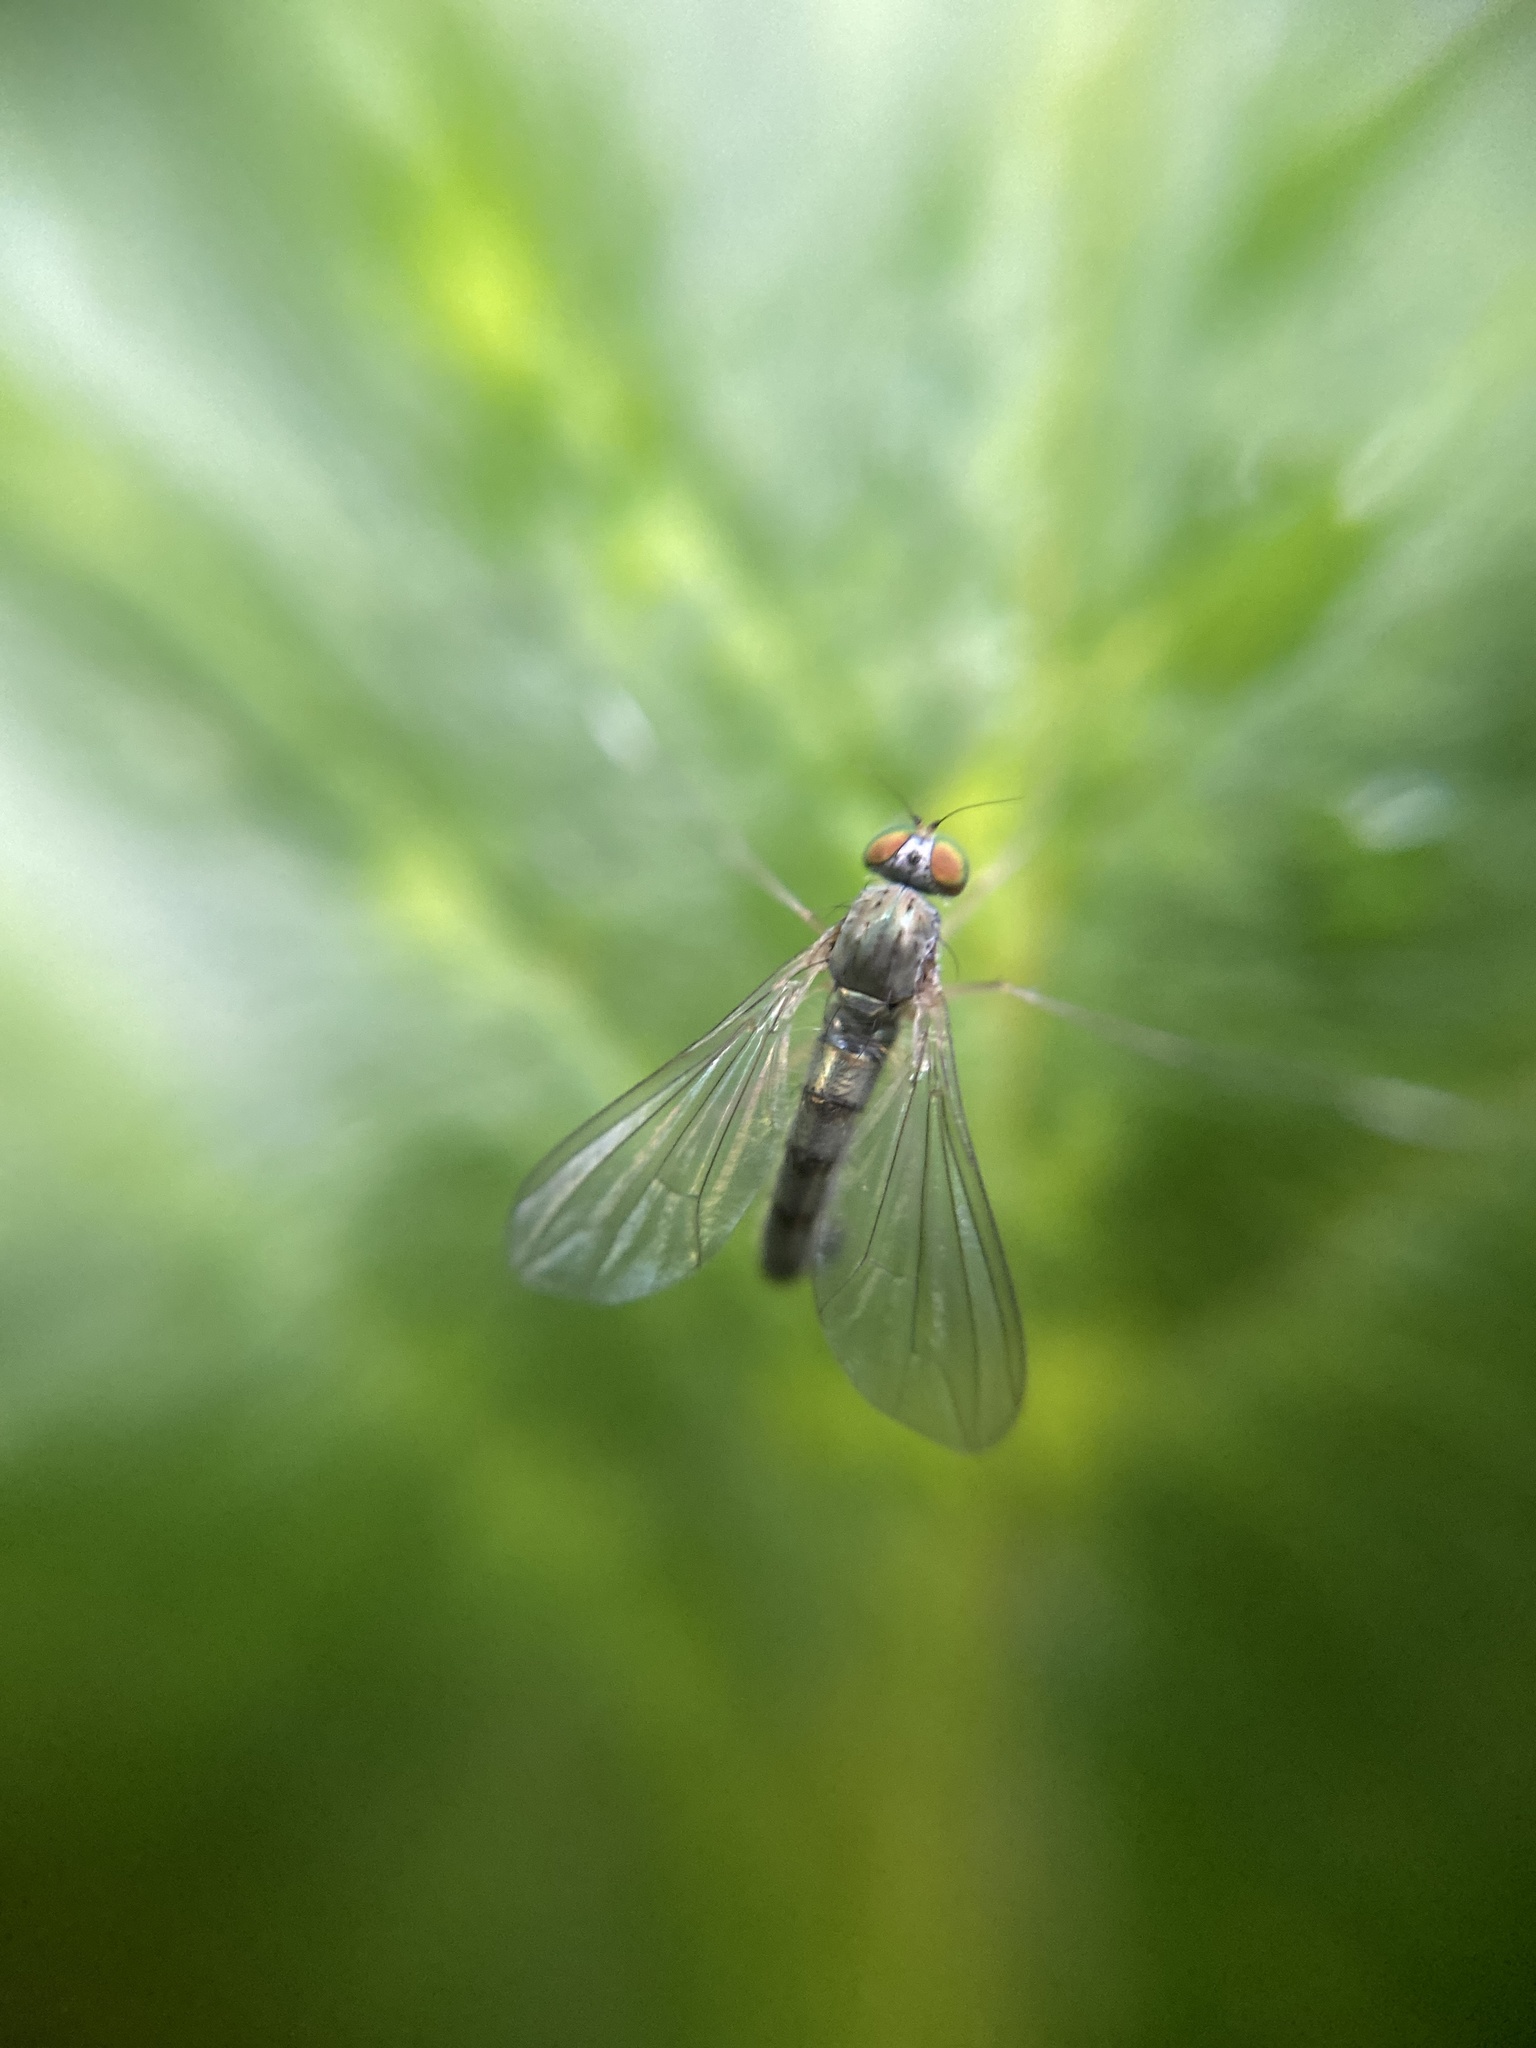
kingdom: Animalia
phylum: Arthropoda
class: Insecta
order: Diptera
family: Dolichopodidae
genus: Sciapus
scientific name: Sciapus platypterus
